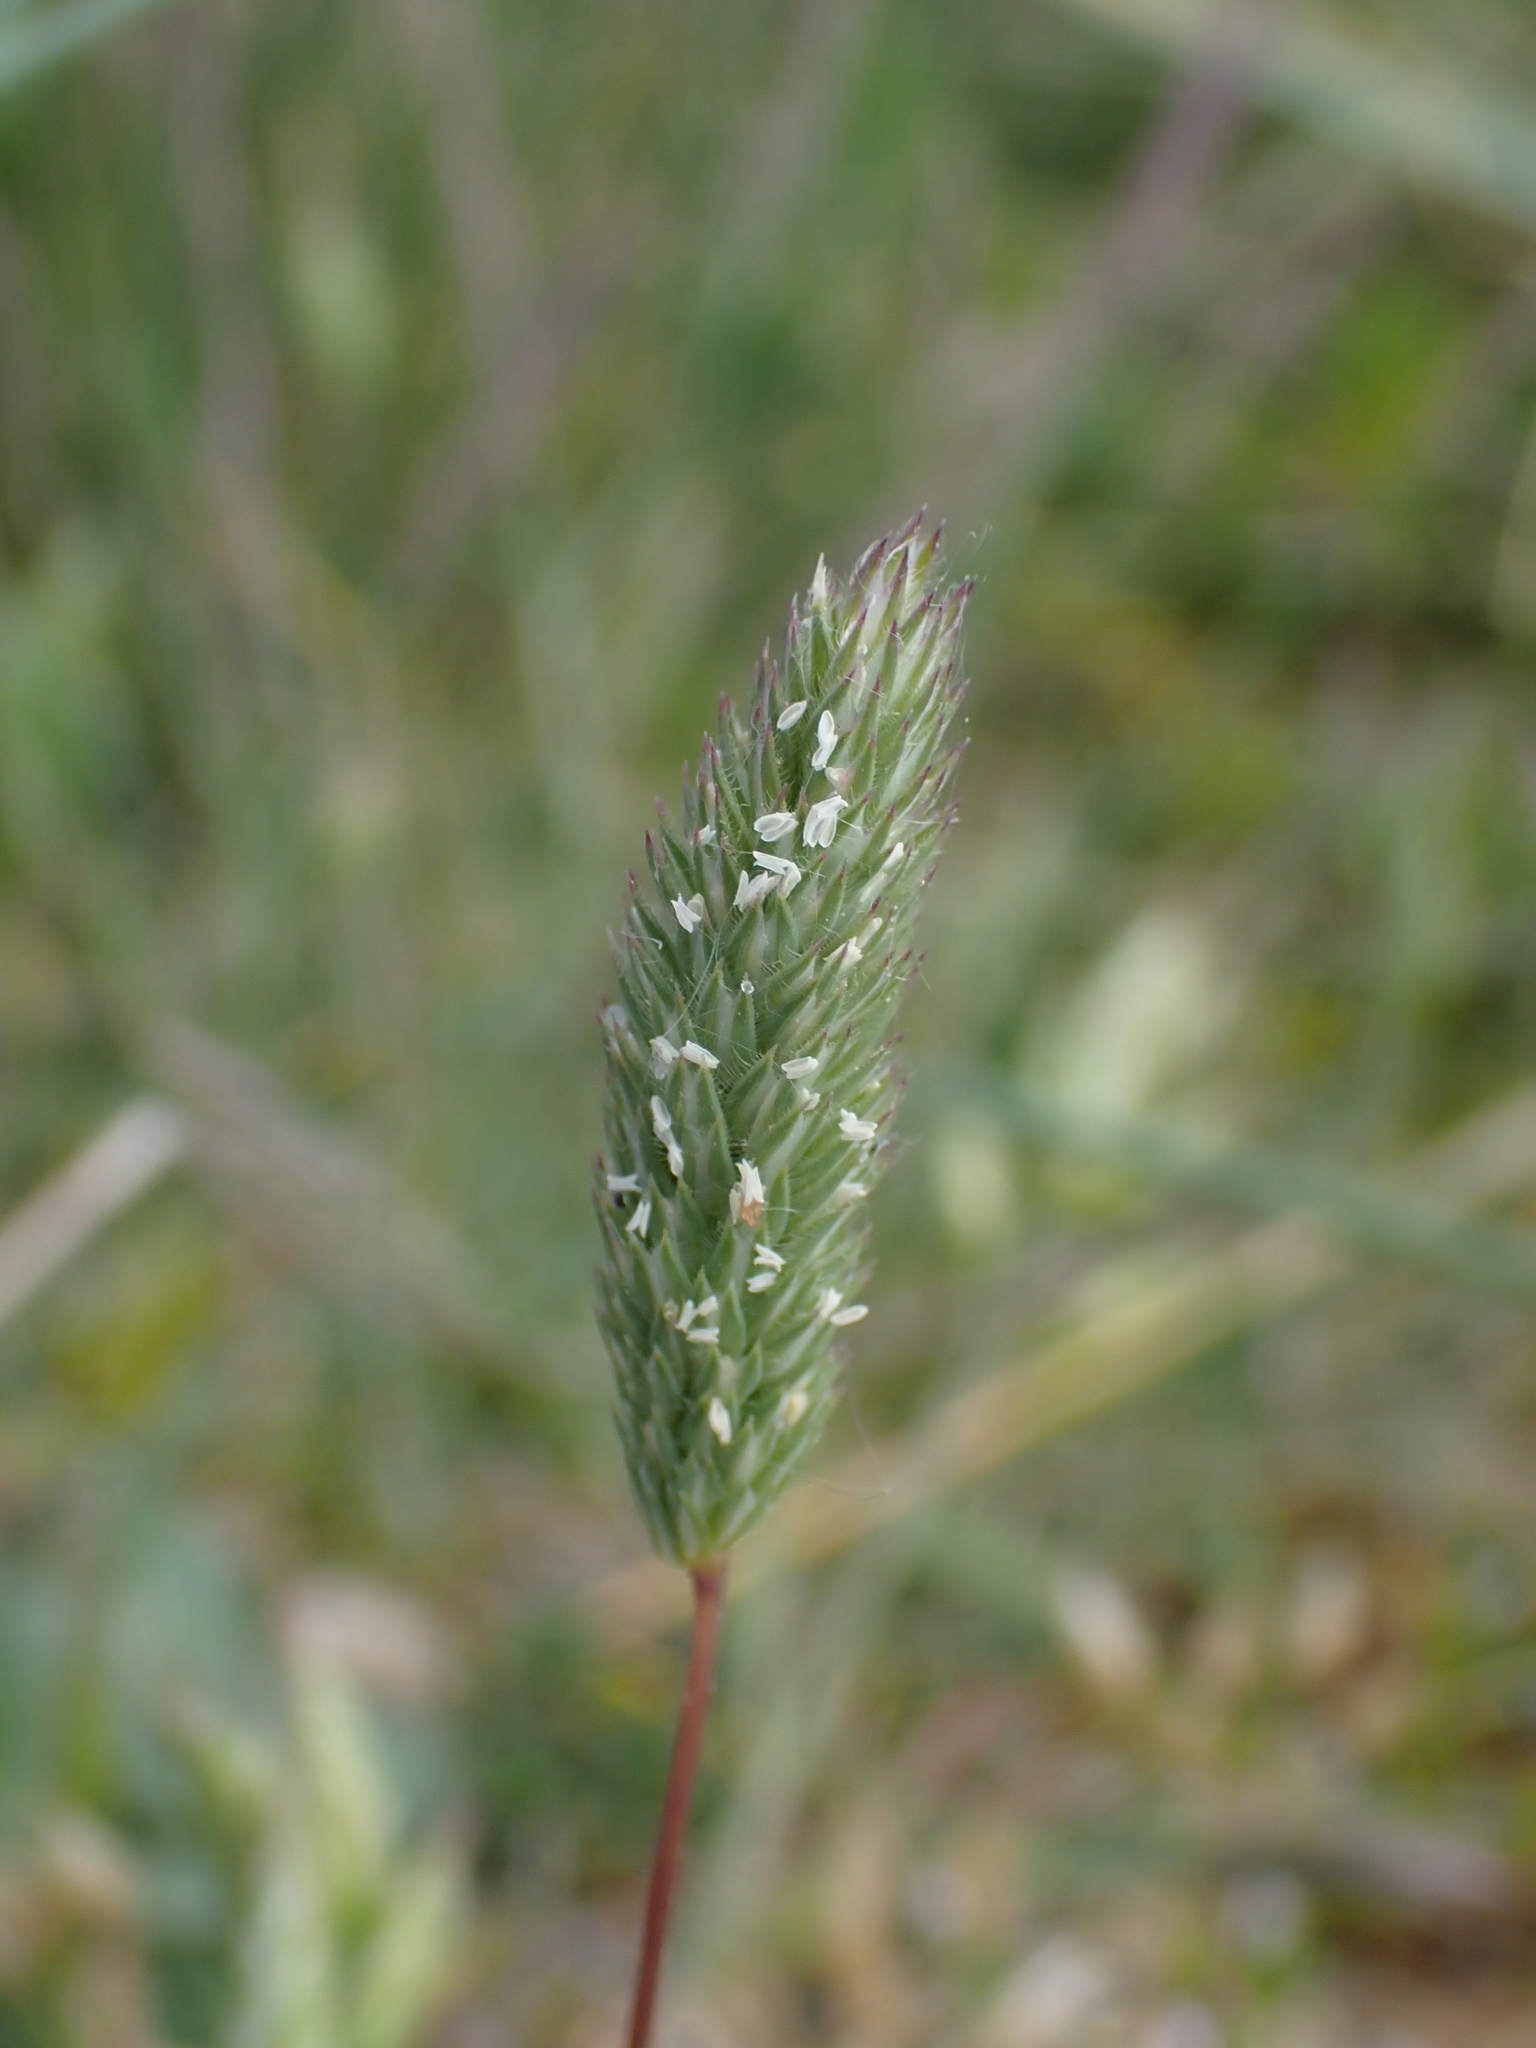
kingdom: Plantae
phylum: Tracheophyta
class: Liliopsida
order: Poales
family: Poaceae
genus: Phleum
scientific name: Phleum arenarium
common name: Sand cat's-tail
